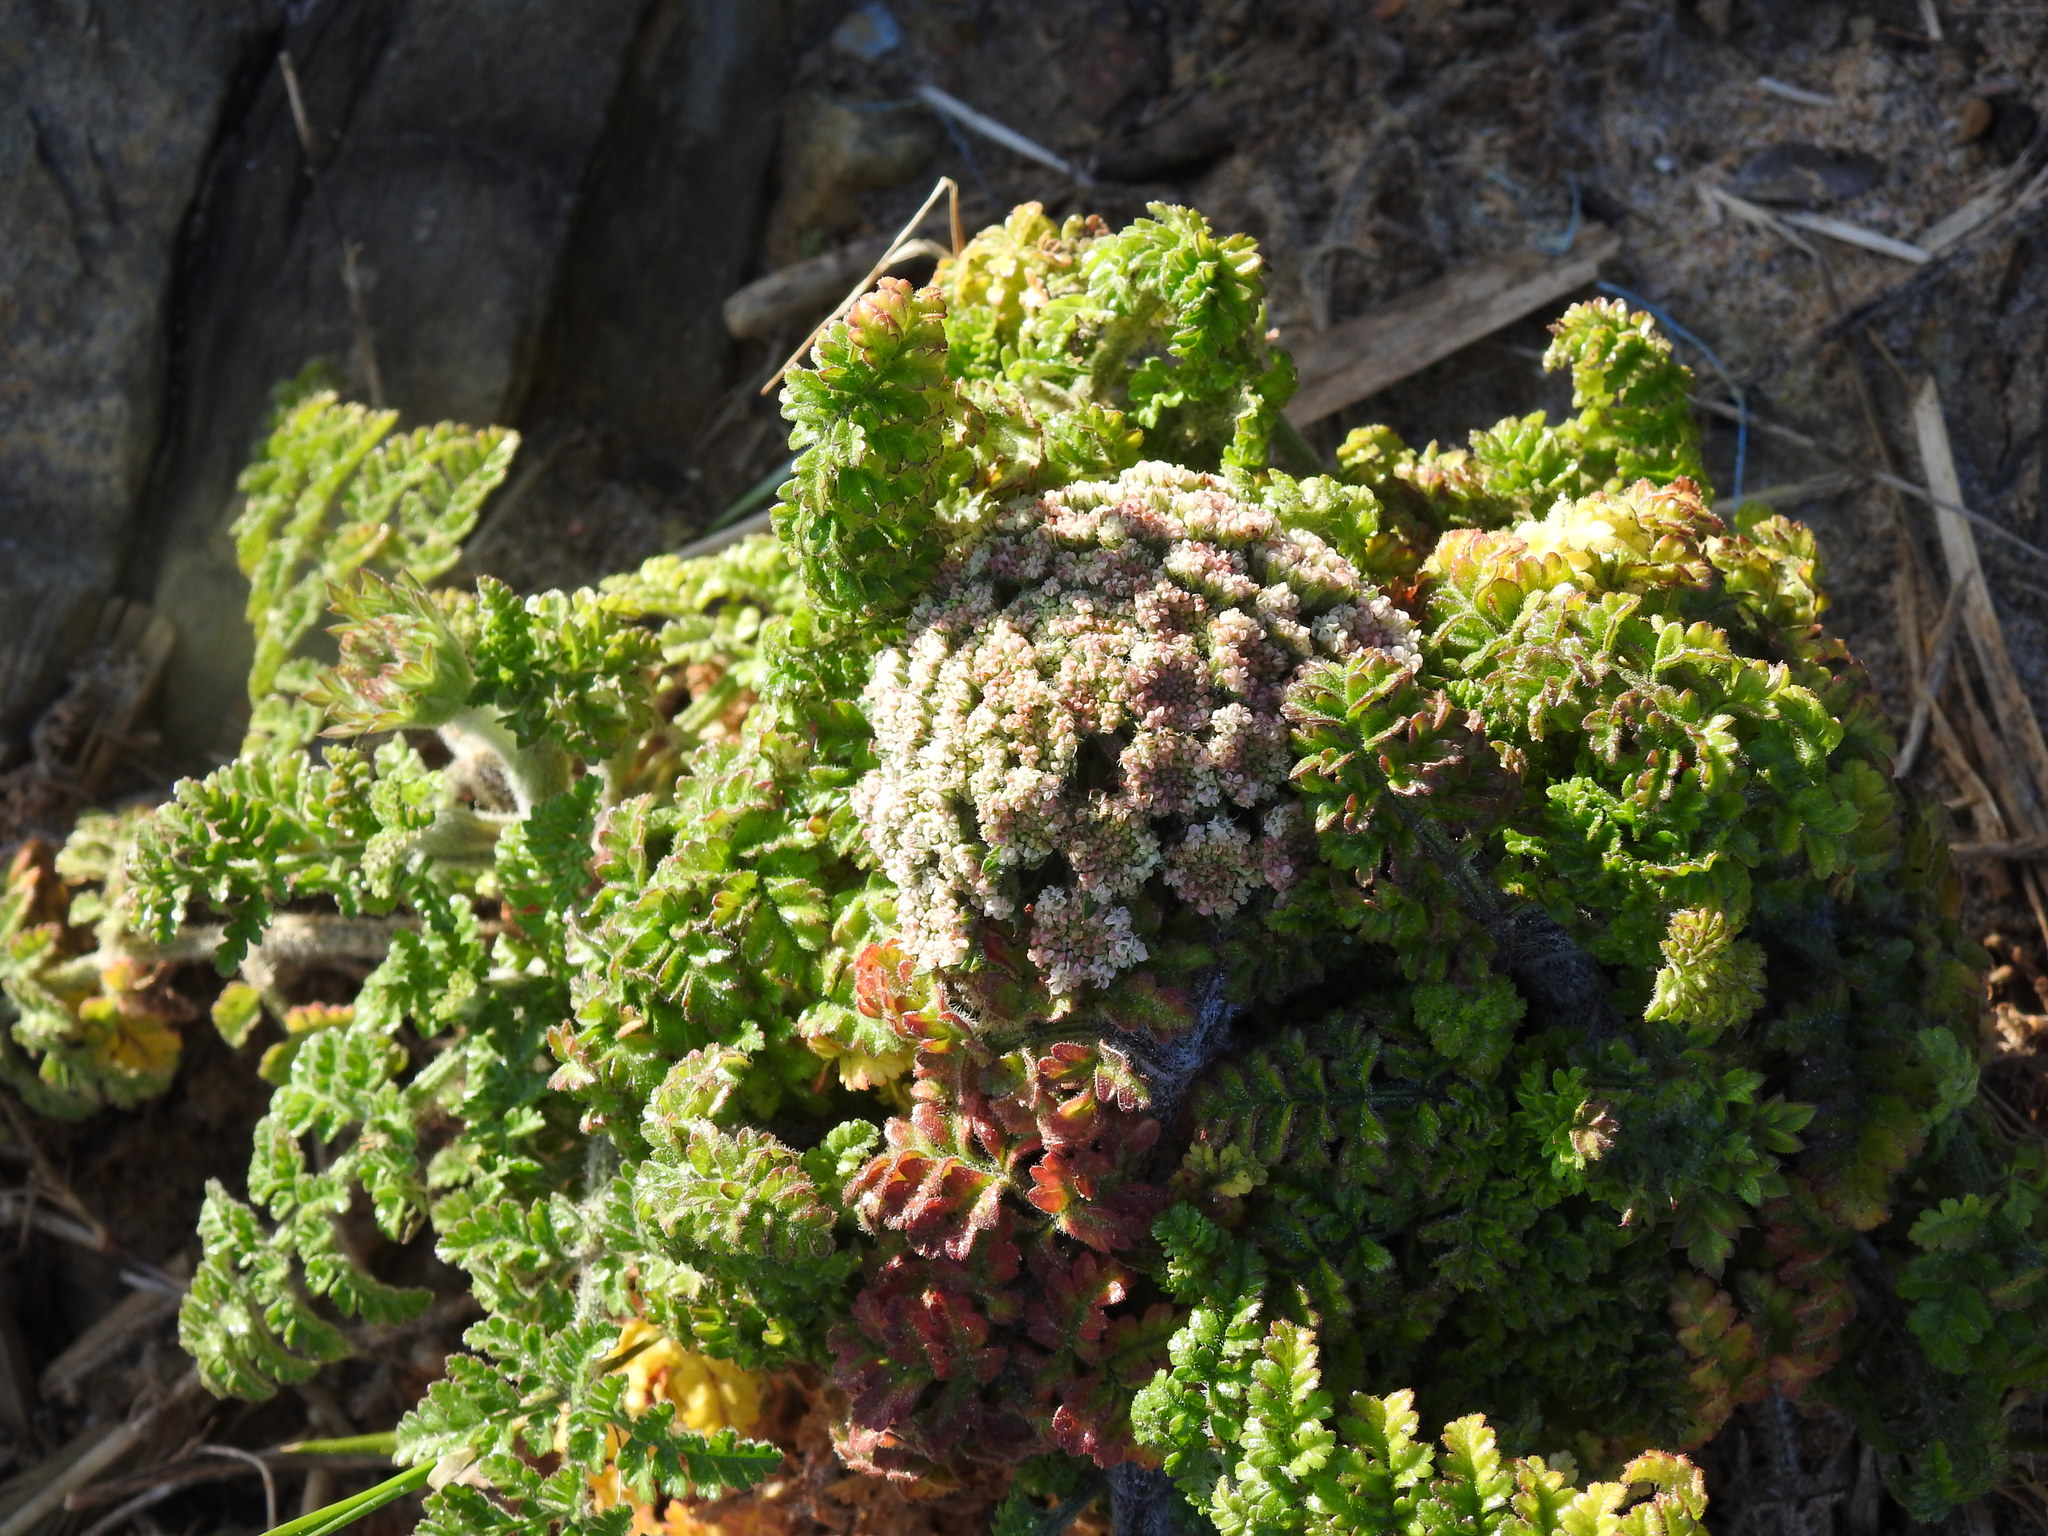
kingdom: Plantae
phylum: Tracheophyta
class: Magnoliopsida
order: Apiales
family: Apiaceae
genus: Daucus
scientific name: Daucus carota
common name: Wild carrot
